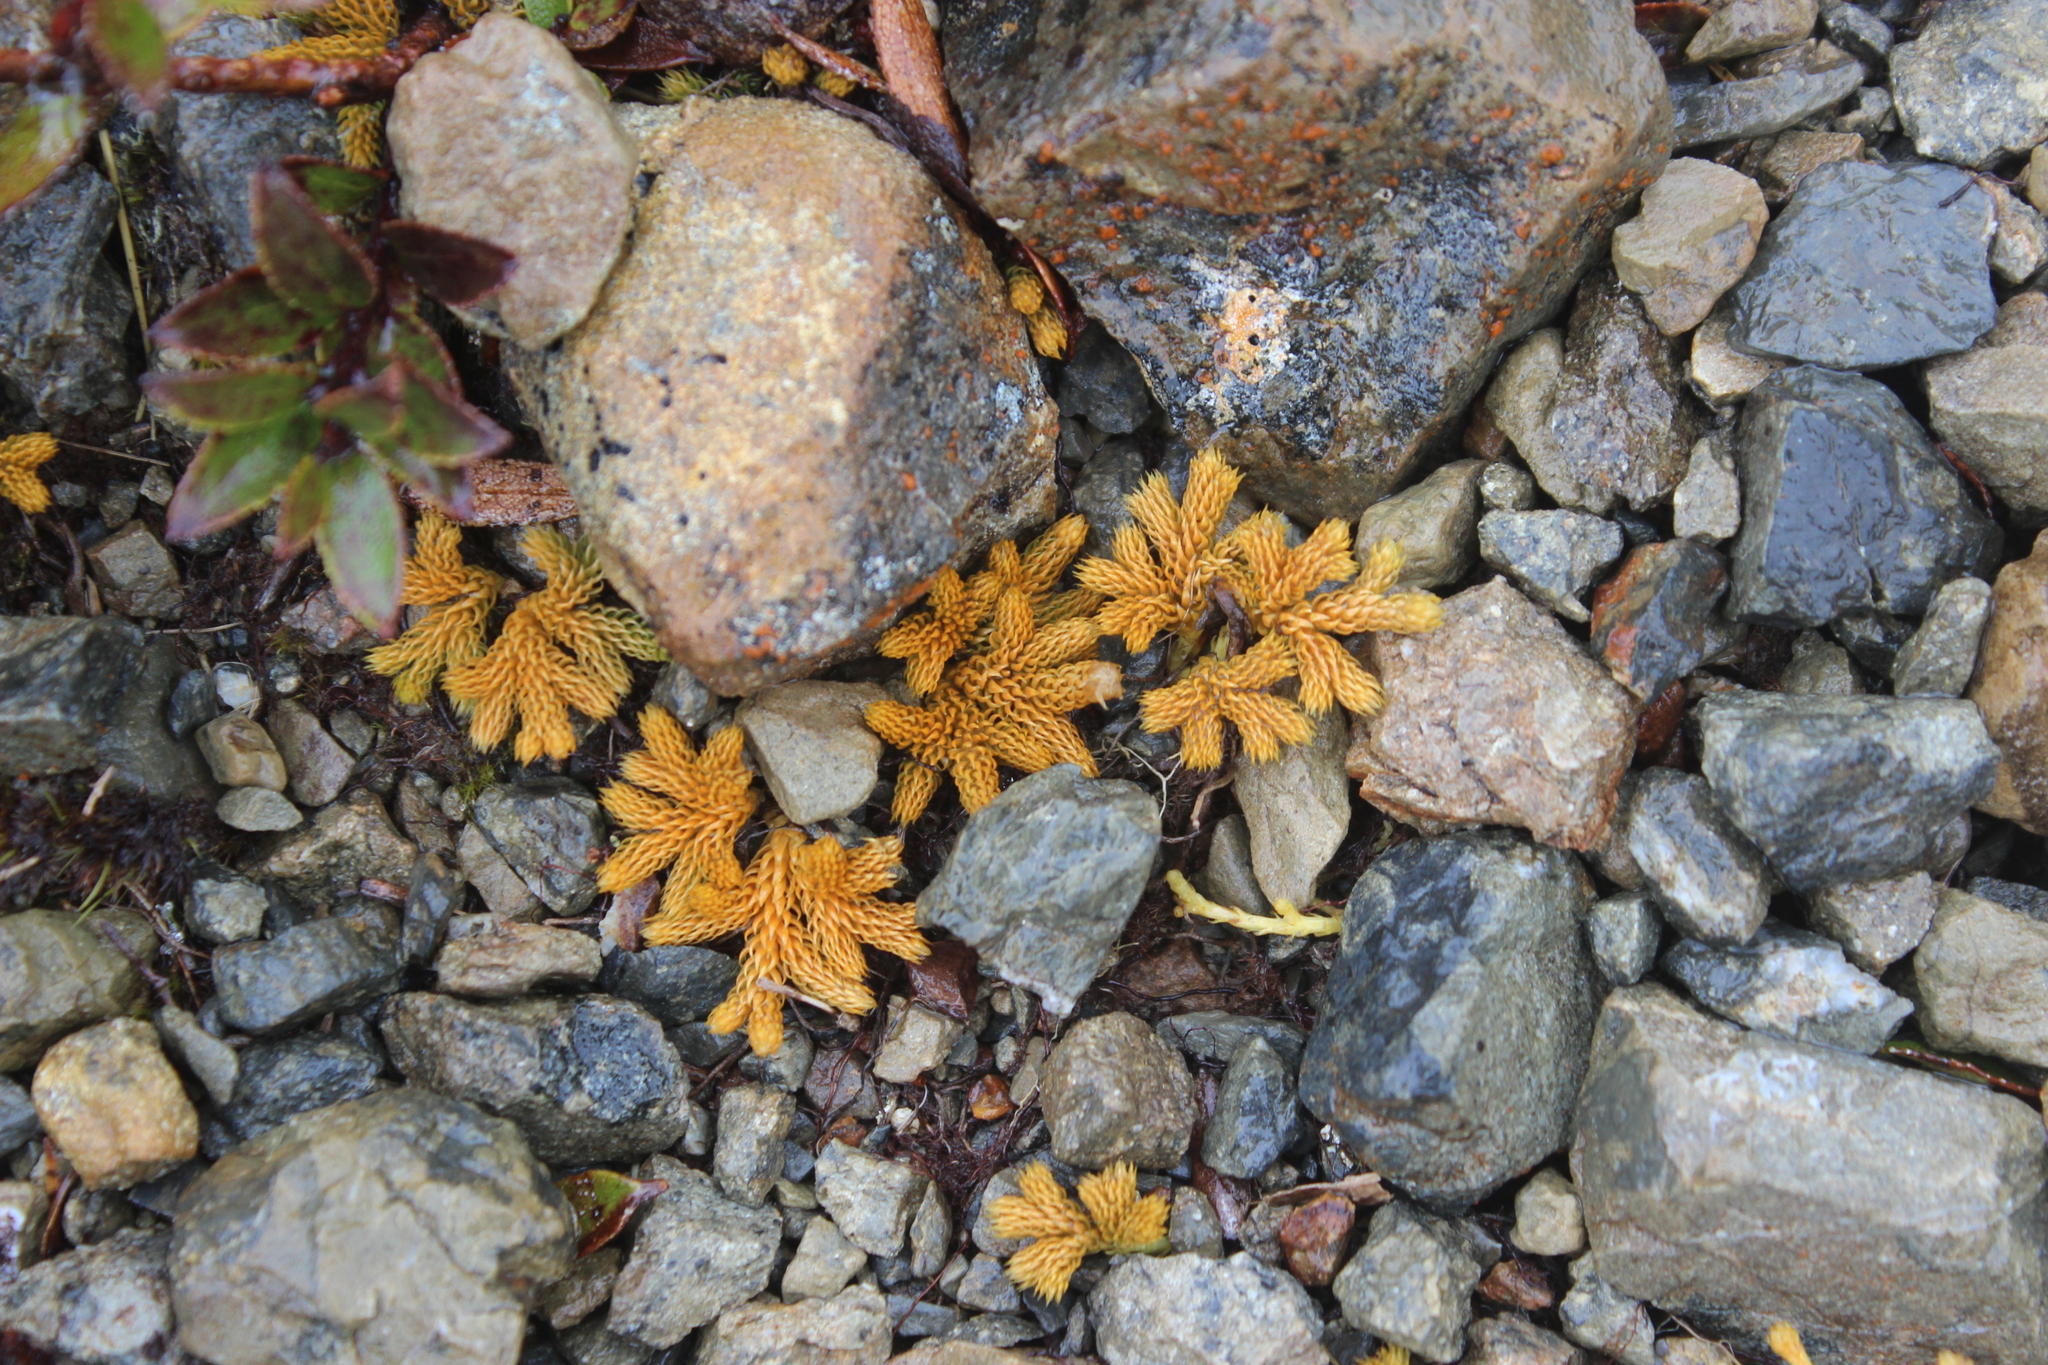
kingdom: Plantae
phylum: Tracheophyta
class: Lycopodiopsida
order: Lycopodiales
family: Lycopodiaceae
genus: Austrolycopodium
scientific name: Austrolycopodium fastigiatum
